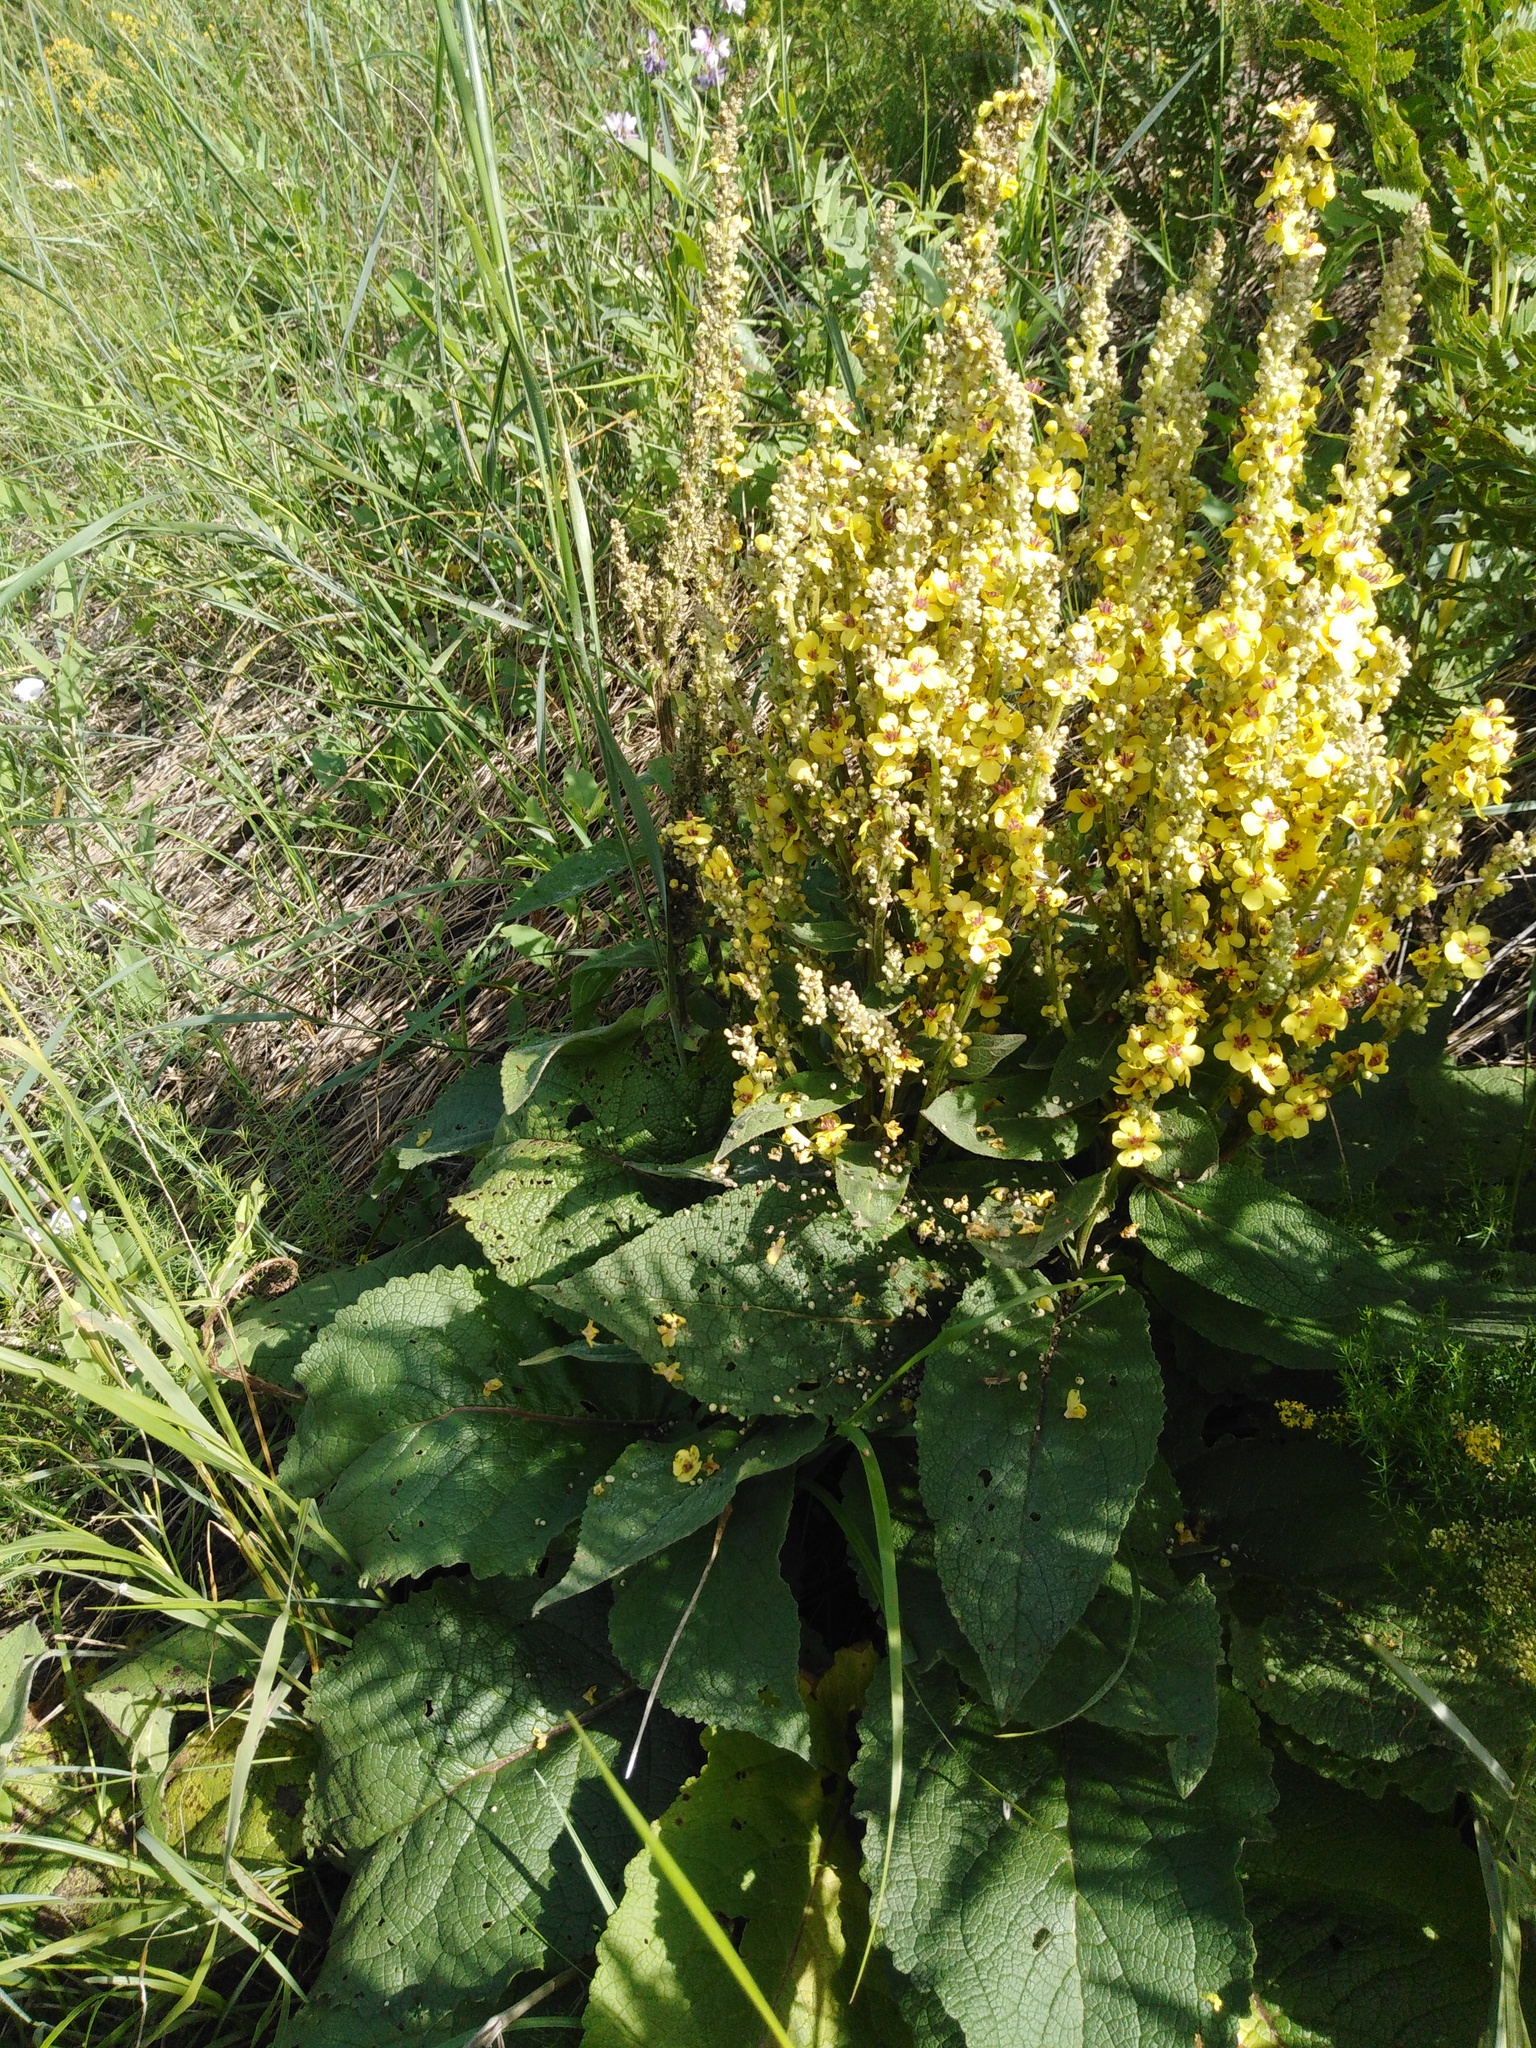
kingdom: Plantae
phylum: Tracheophyta
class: Magnoliopsida
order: Lamiales
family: Scrophulariaceae
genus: Verbascum
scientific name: Verbascum nigrum
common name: Dark mullein
